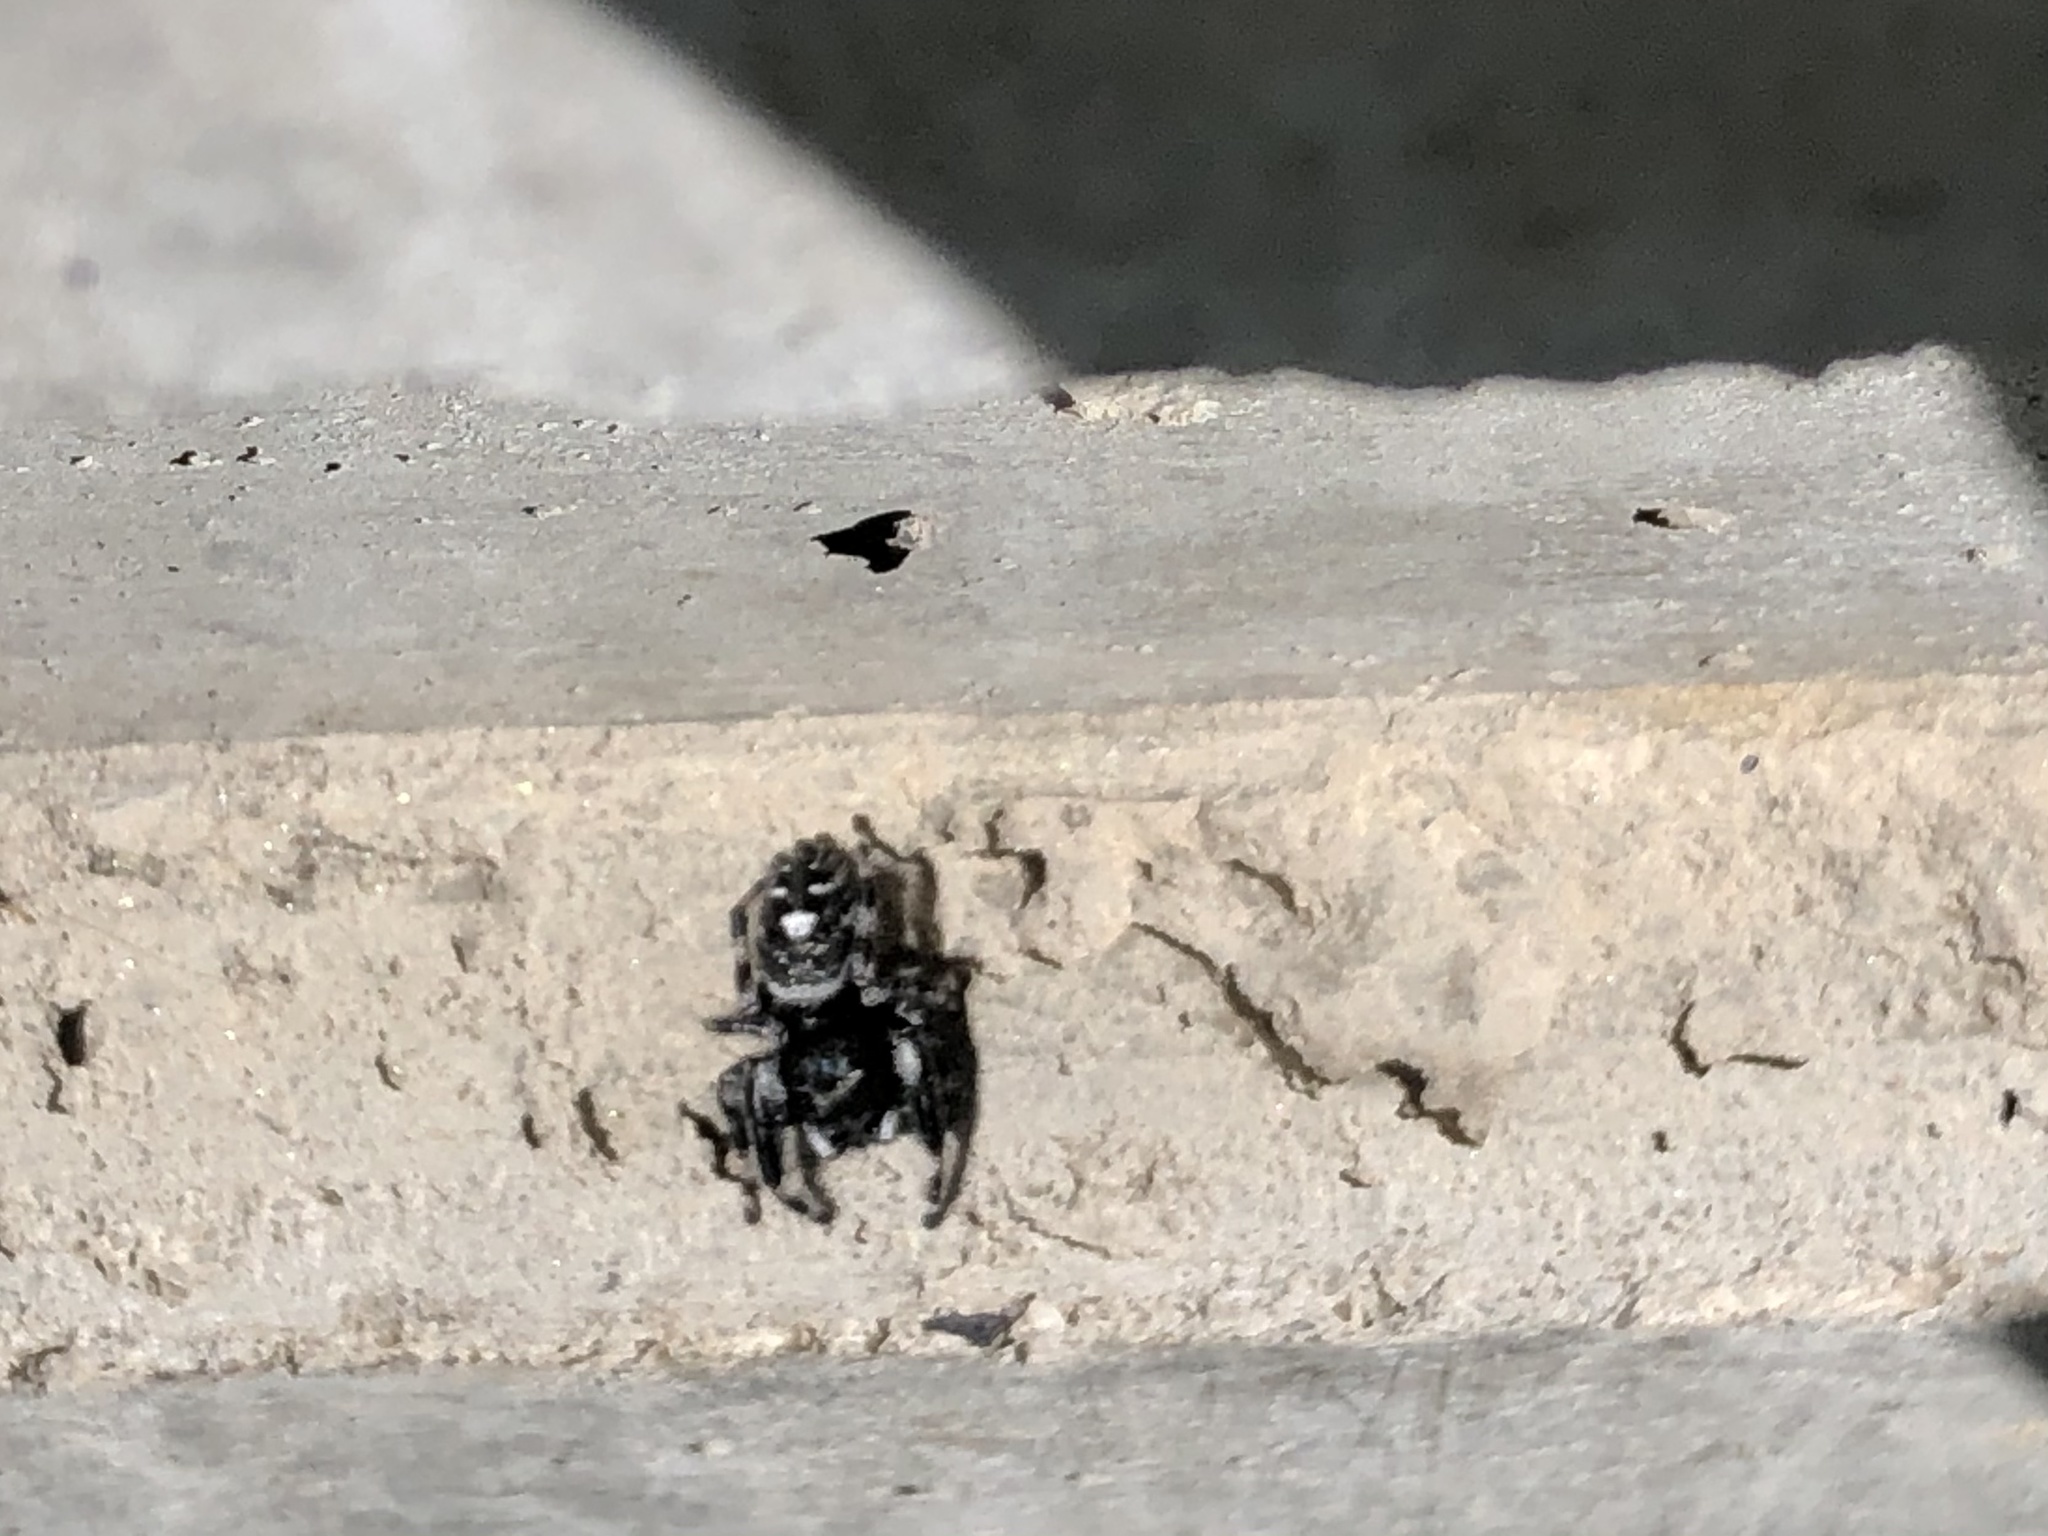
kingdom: Animalia
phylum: Arthropoda
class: Arachnida
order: Araneae
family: Salticidae
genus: Phidippus
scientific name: Phidippus audax
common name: Bold jumper
